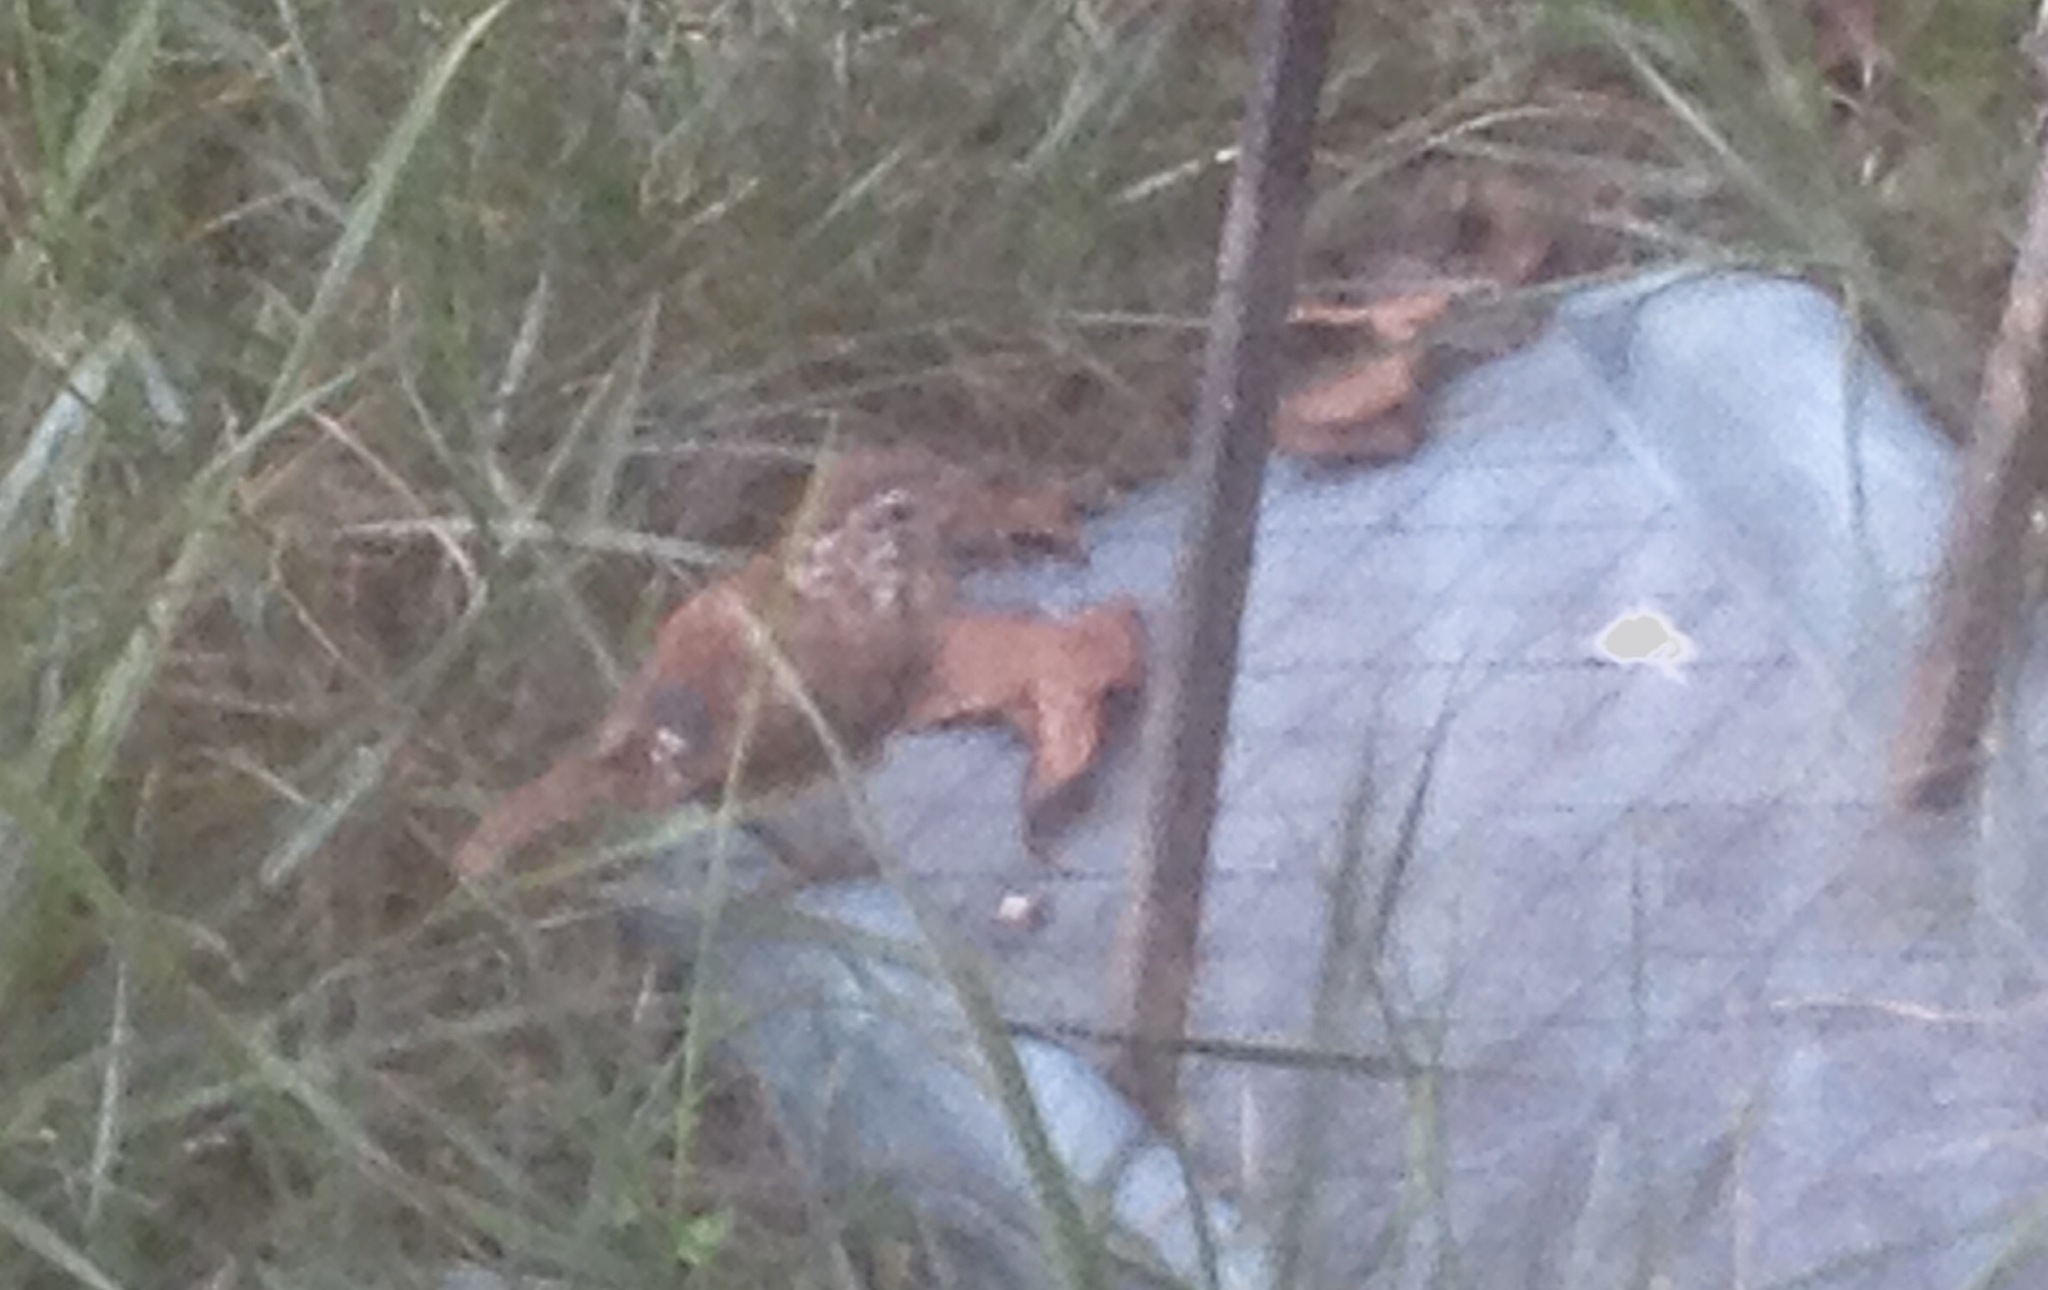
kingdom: Animalia
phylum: Chordata
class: Aves
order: Passeriformes
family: Troglodytidae
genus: Thryothorus
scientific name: Thryothorus ludovicianus
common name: Carolina wren
